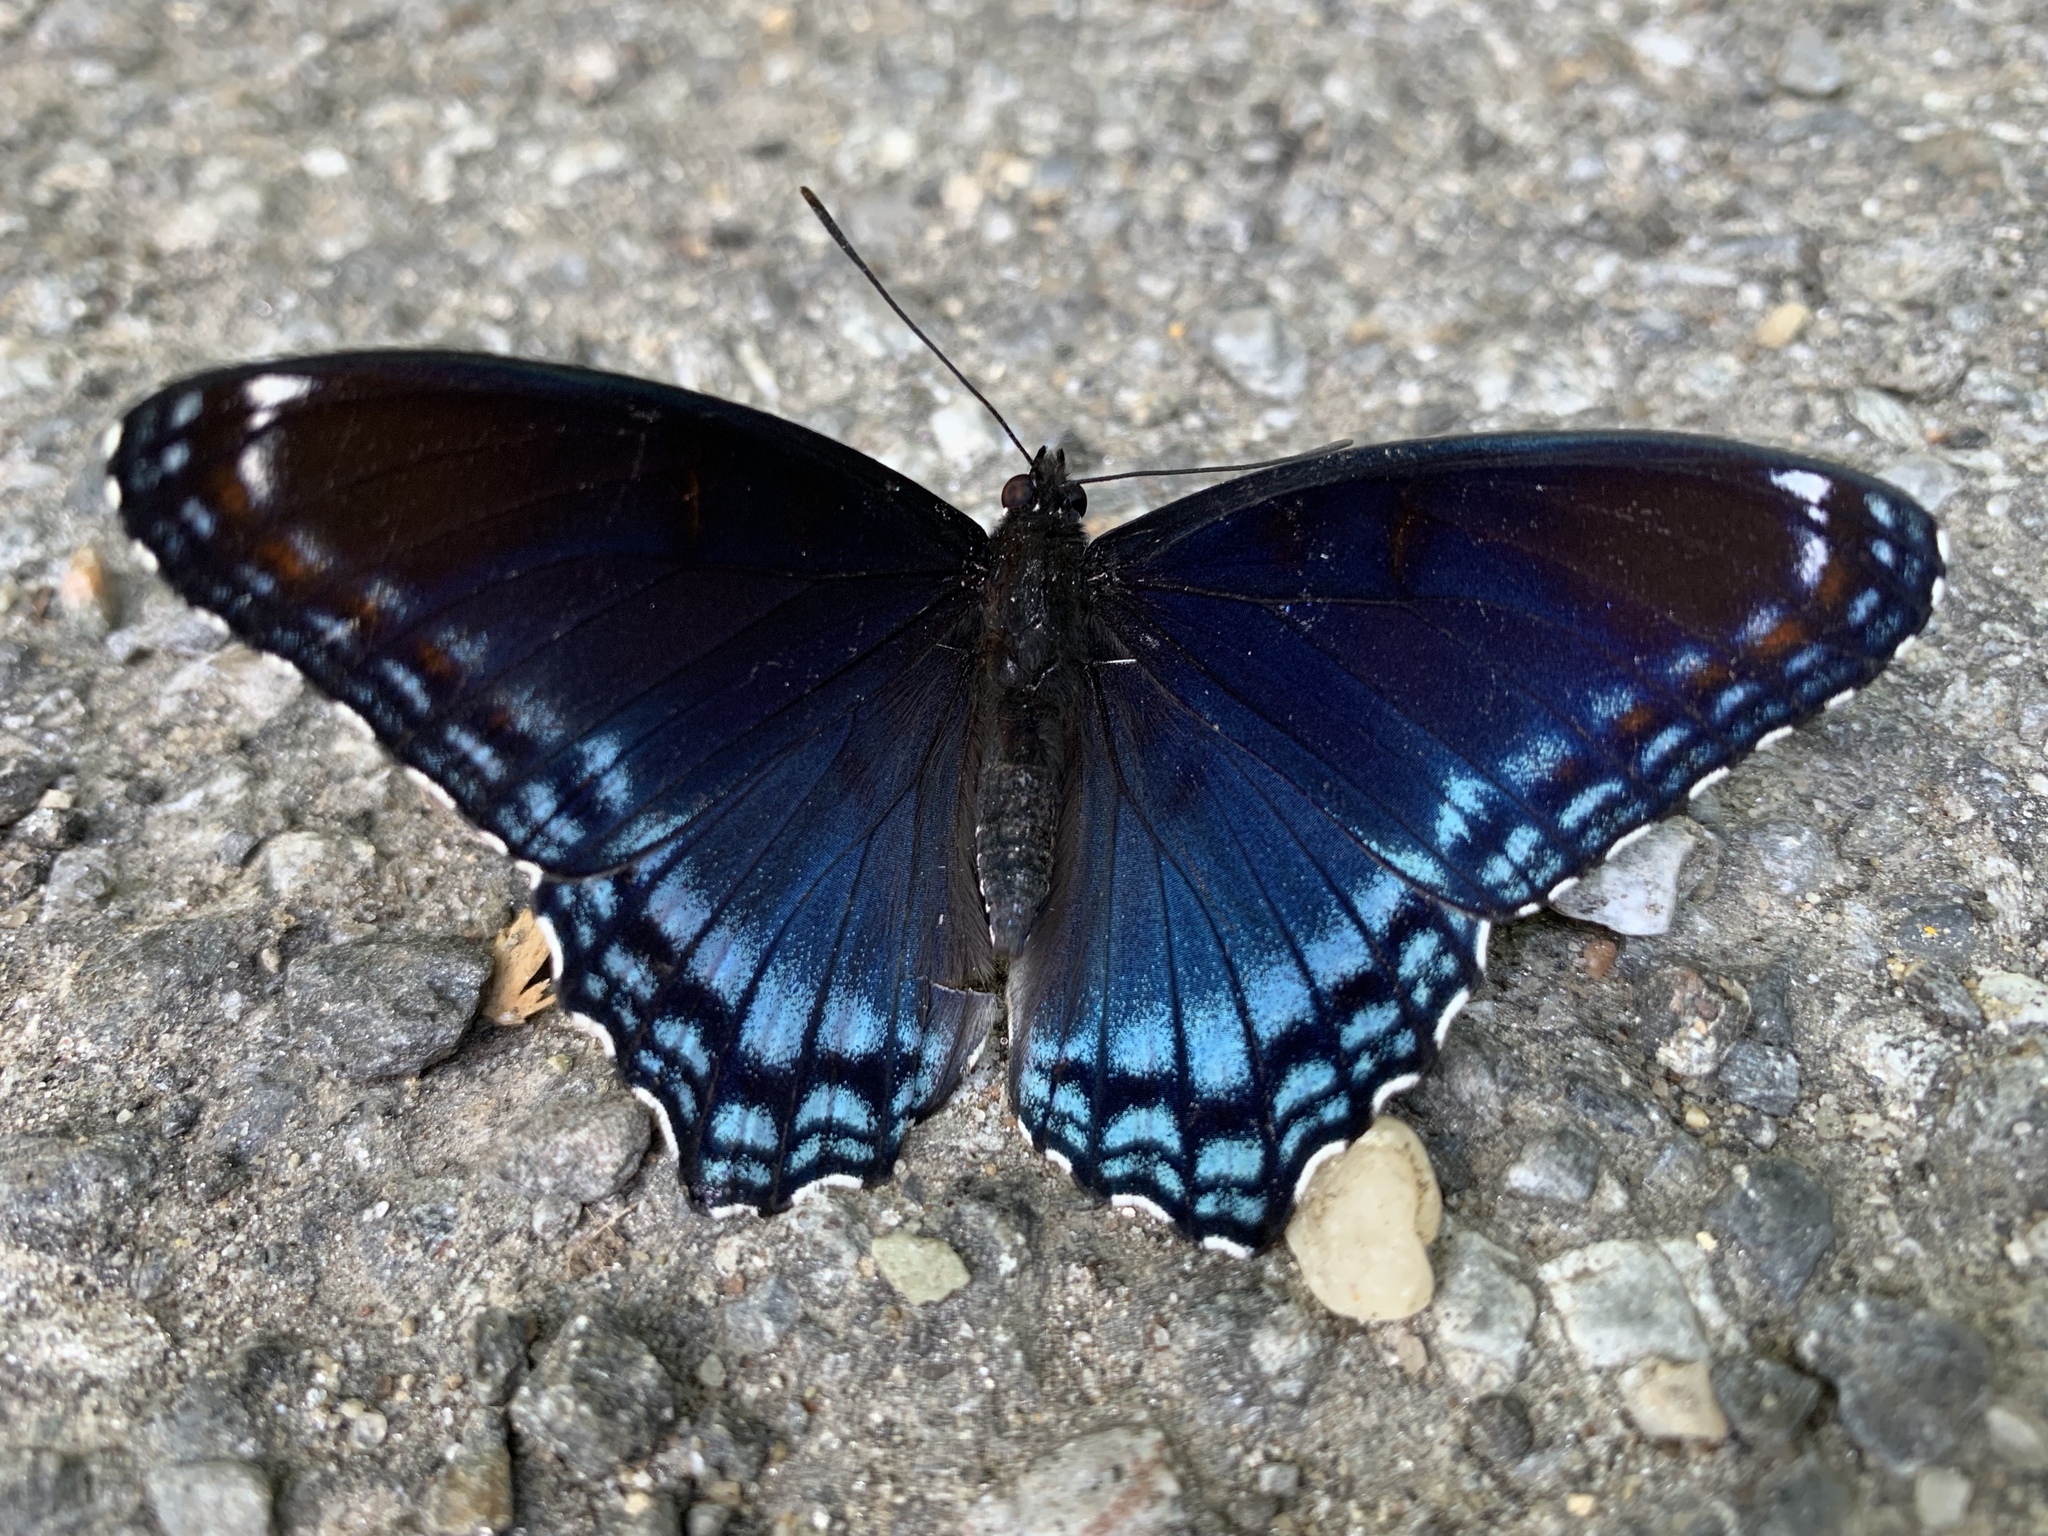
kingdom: Animalia
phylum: Arthropoda
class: Insecta
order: Lepidoptera
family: Nymphalidae
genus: Limenitis
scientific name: Limenitis astyanax
